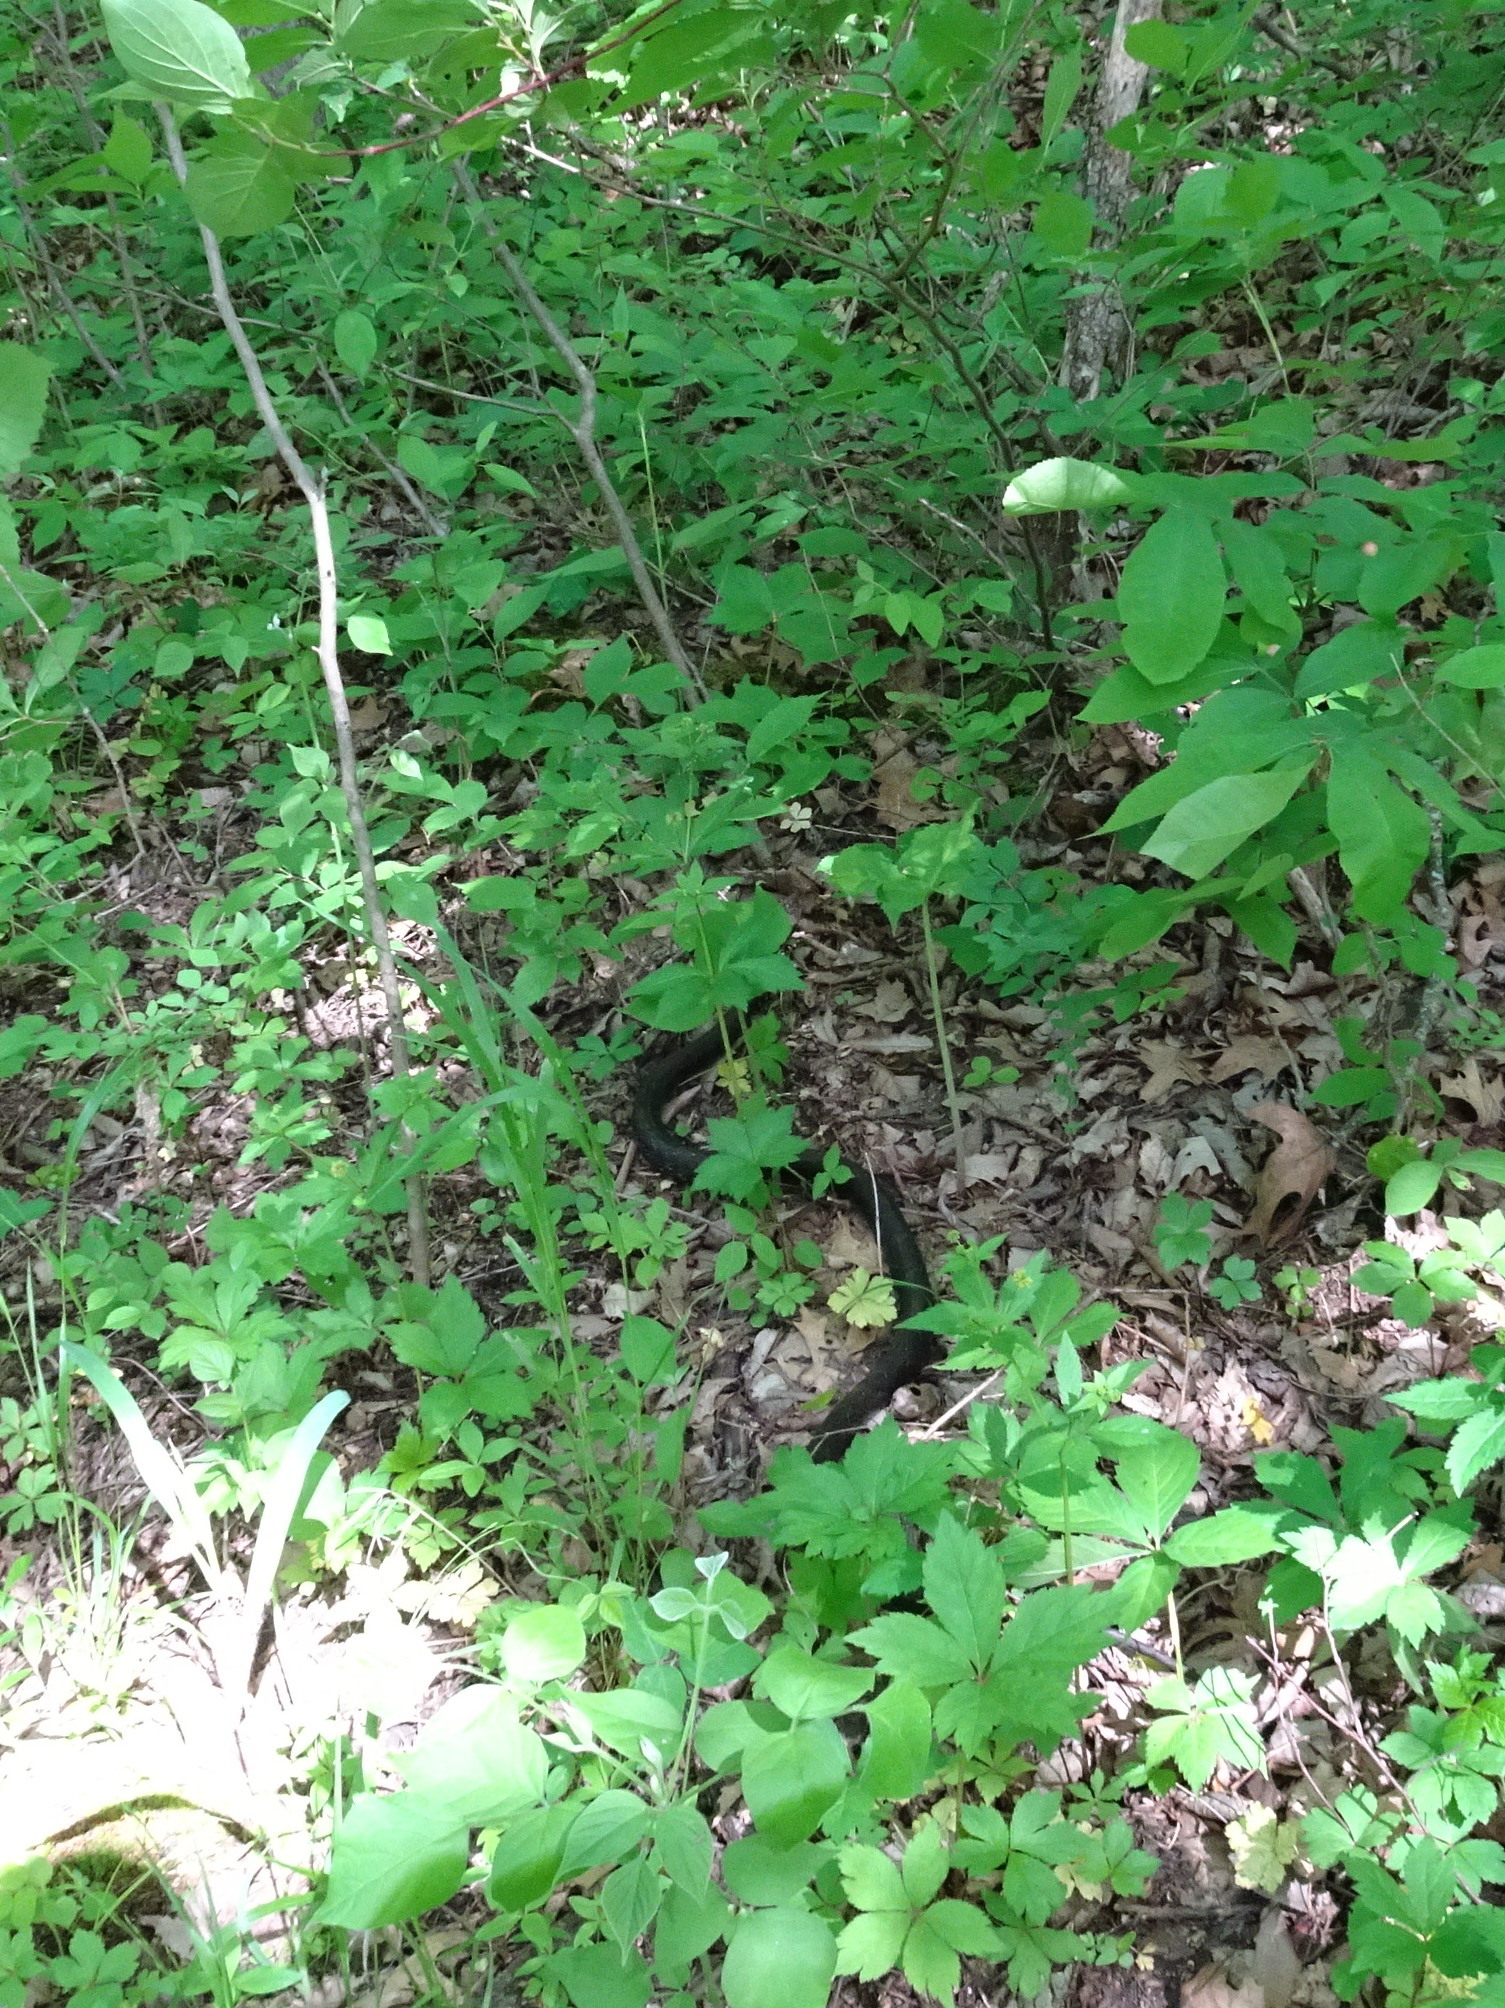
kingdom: Animalia
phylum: Chordata
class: Squamata
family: Colubridae
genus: Pantherophis
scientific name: Pantherophis obsoletus
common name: Black rat snake
